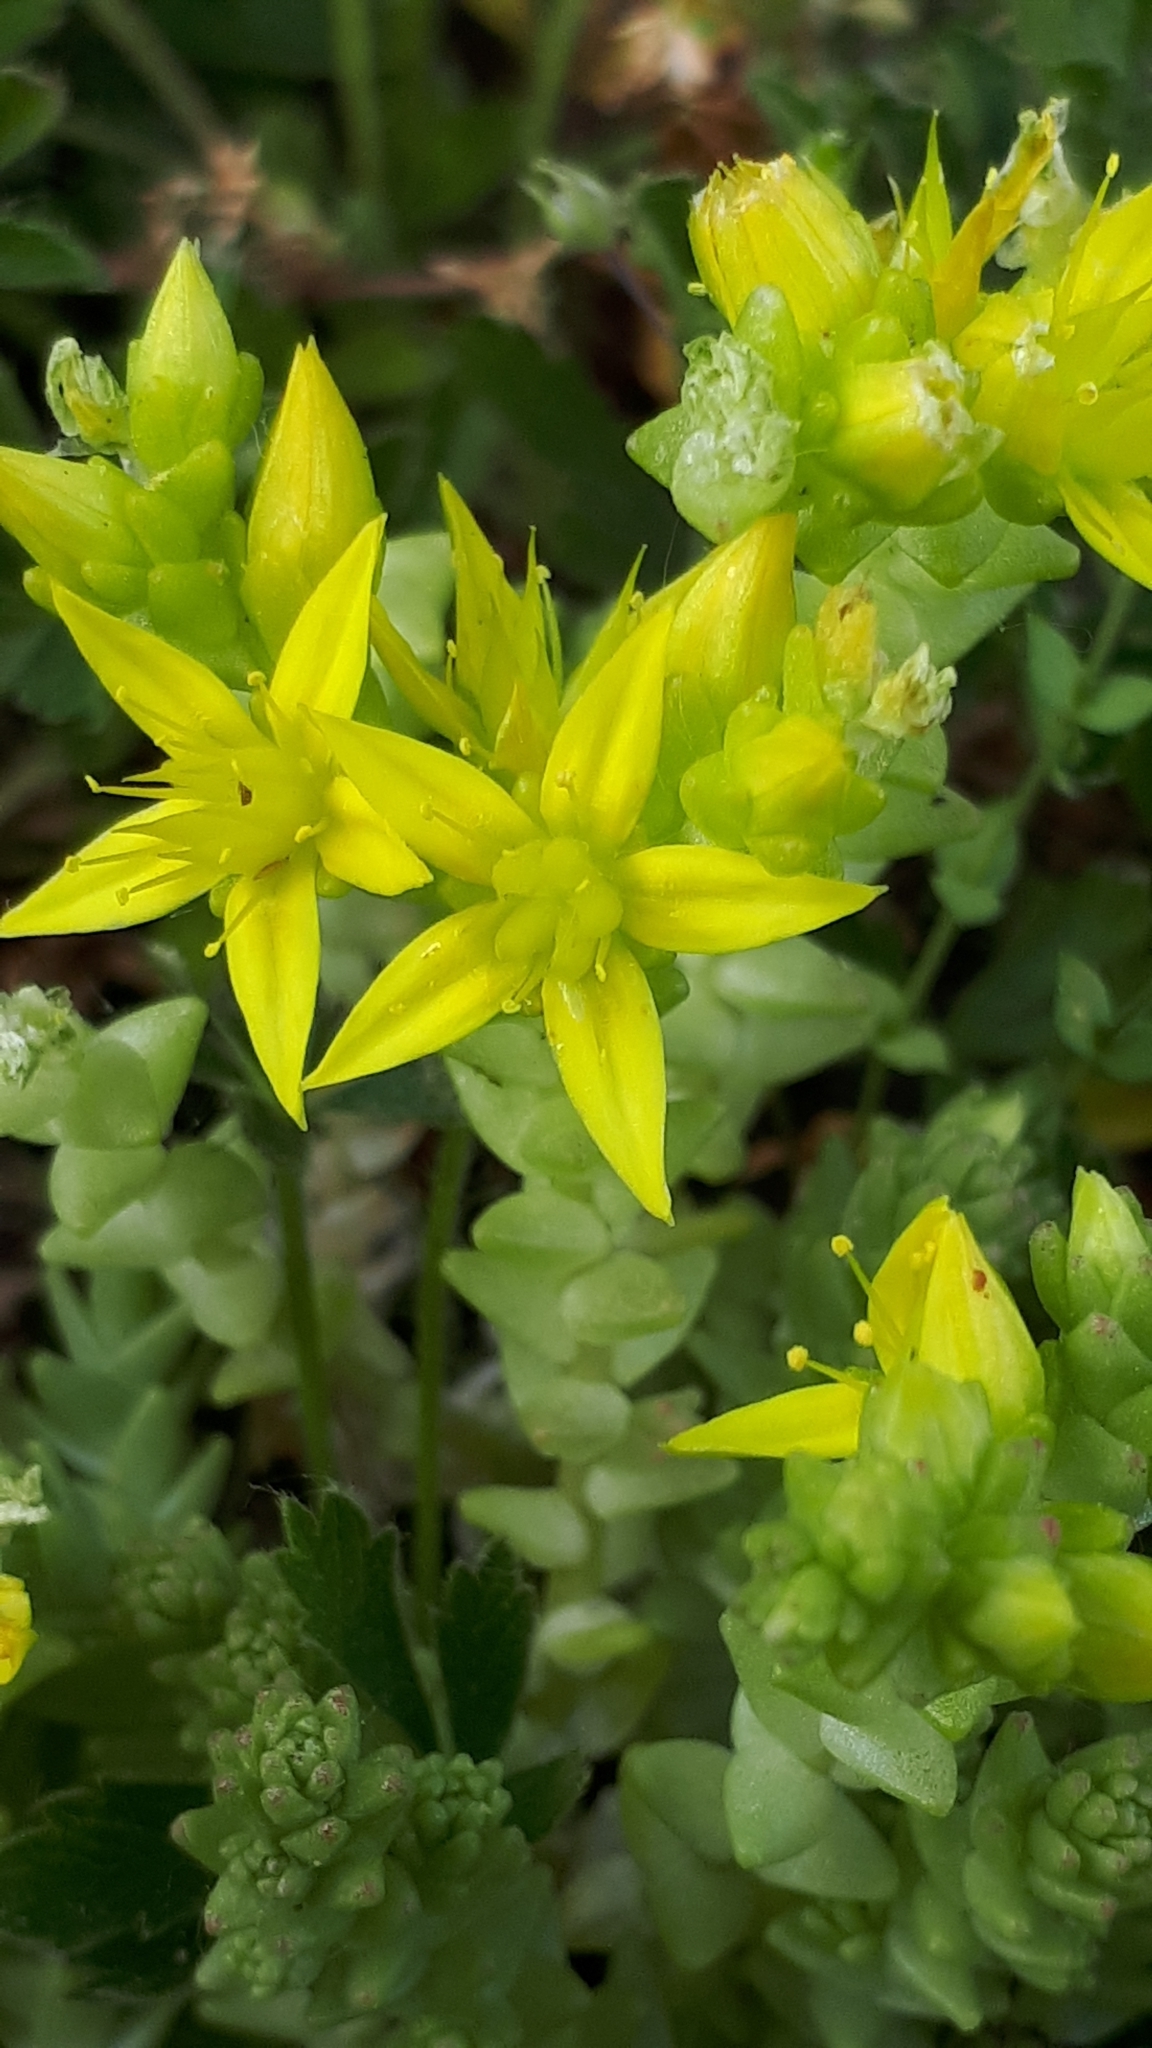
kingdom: Plantae
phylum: Tracheophyta
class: Magnoliopsida
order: Saxifragales
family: Crassulaceae
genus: Sedum
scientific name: Sedum acre
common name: Biting stonecrop
